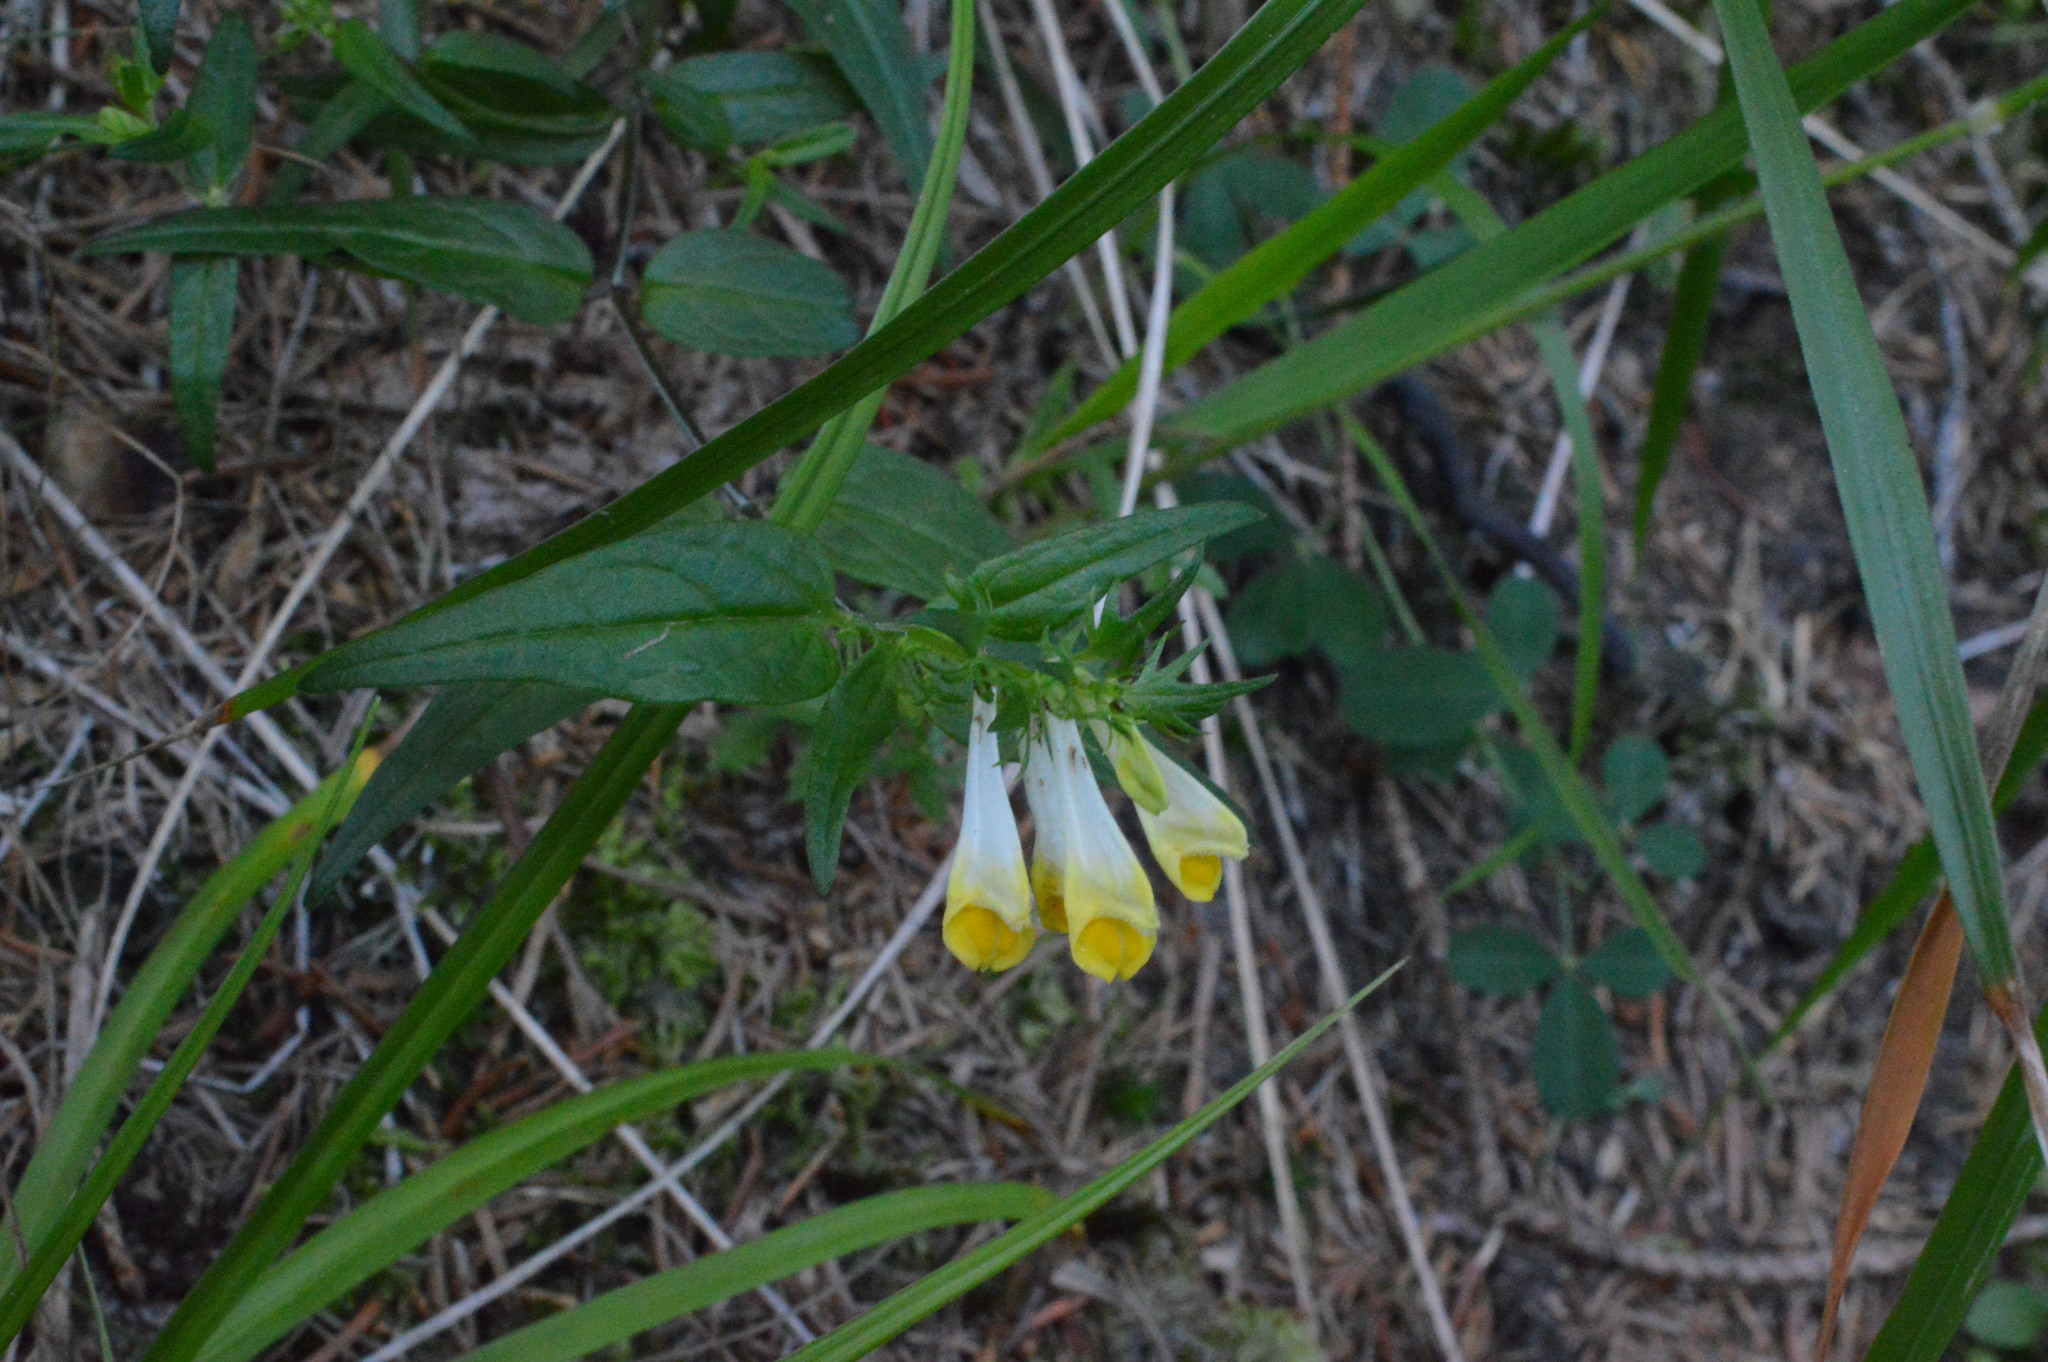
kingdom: Plantae
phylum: Tracheophyta
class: Magnoliopsida
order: Lamiales
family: Orobanchaceae
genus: Melampyrum
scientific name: Melampyrum pratense
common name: Common cow-wheat
